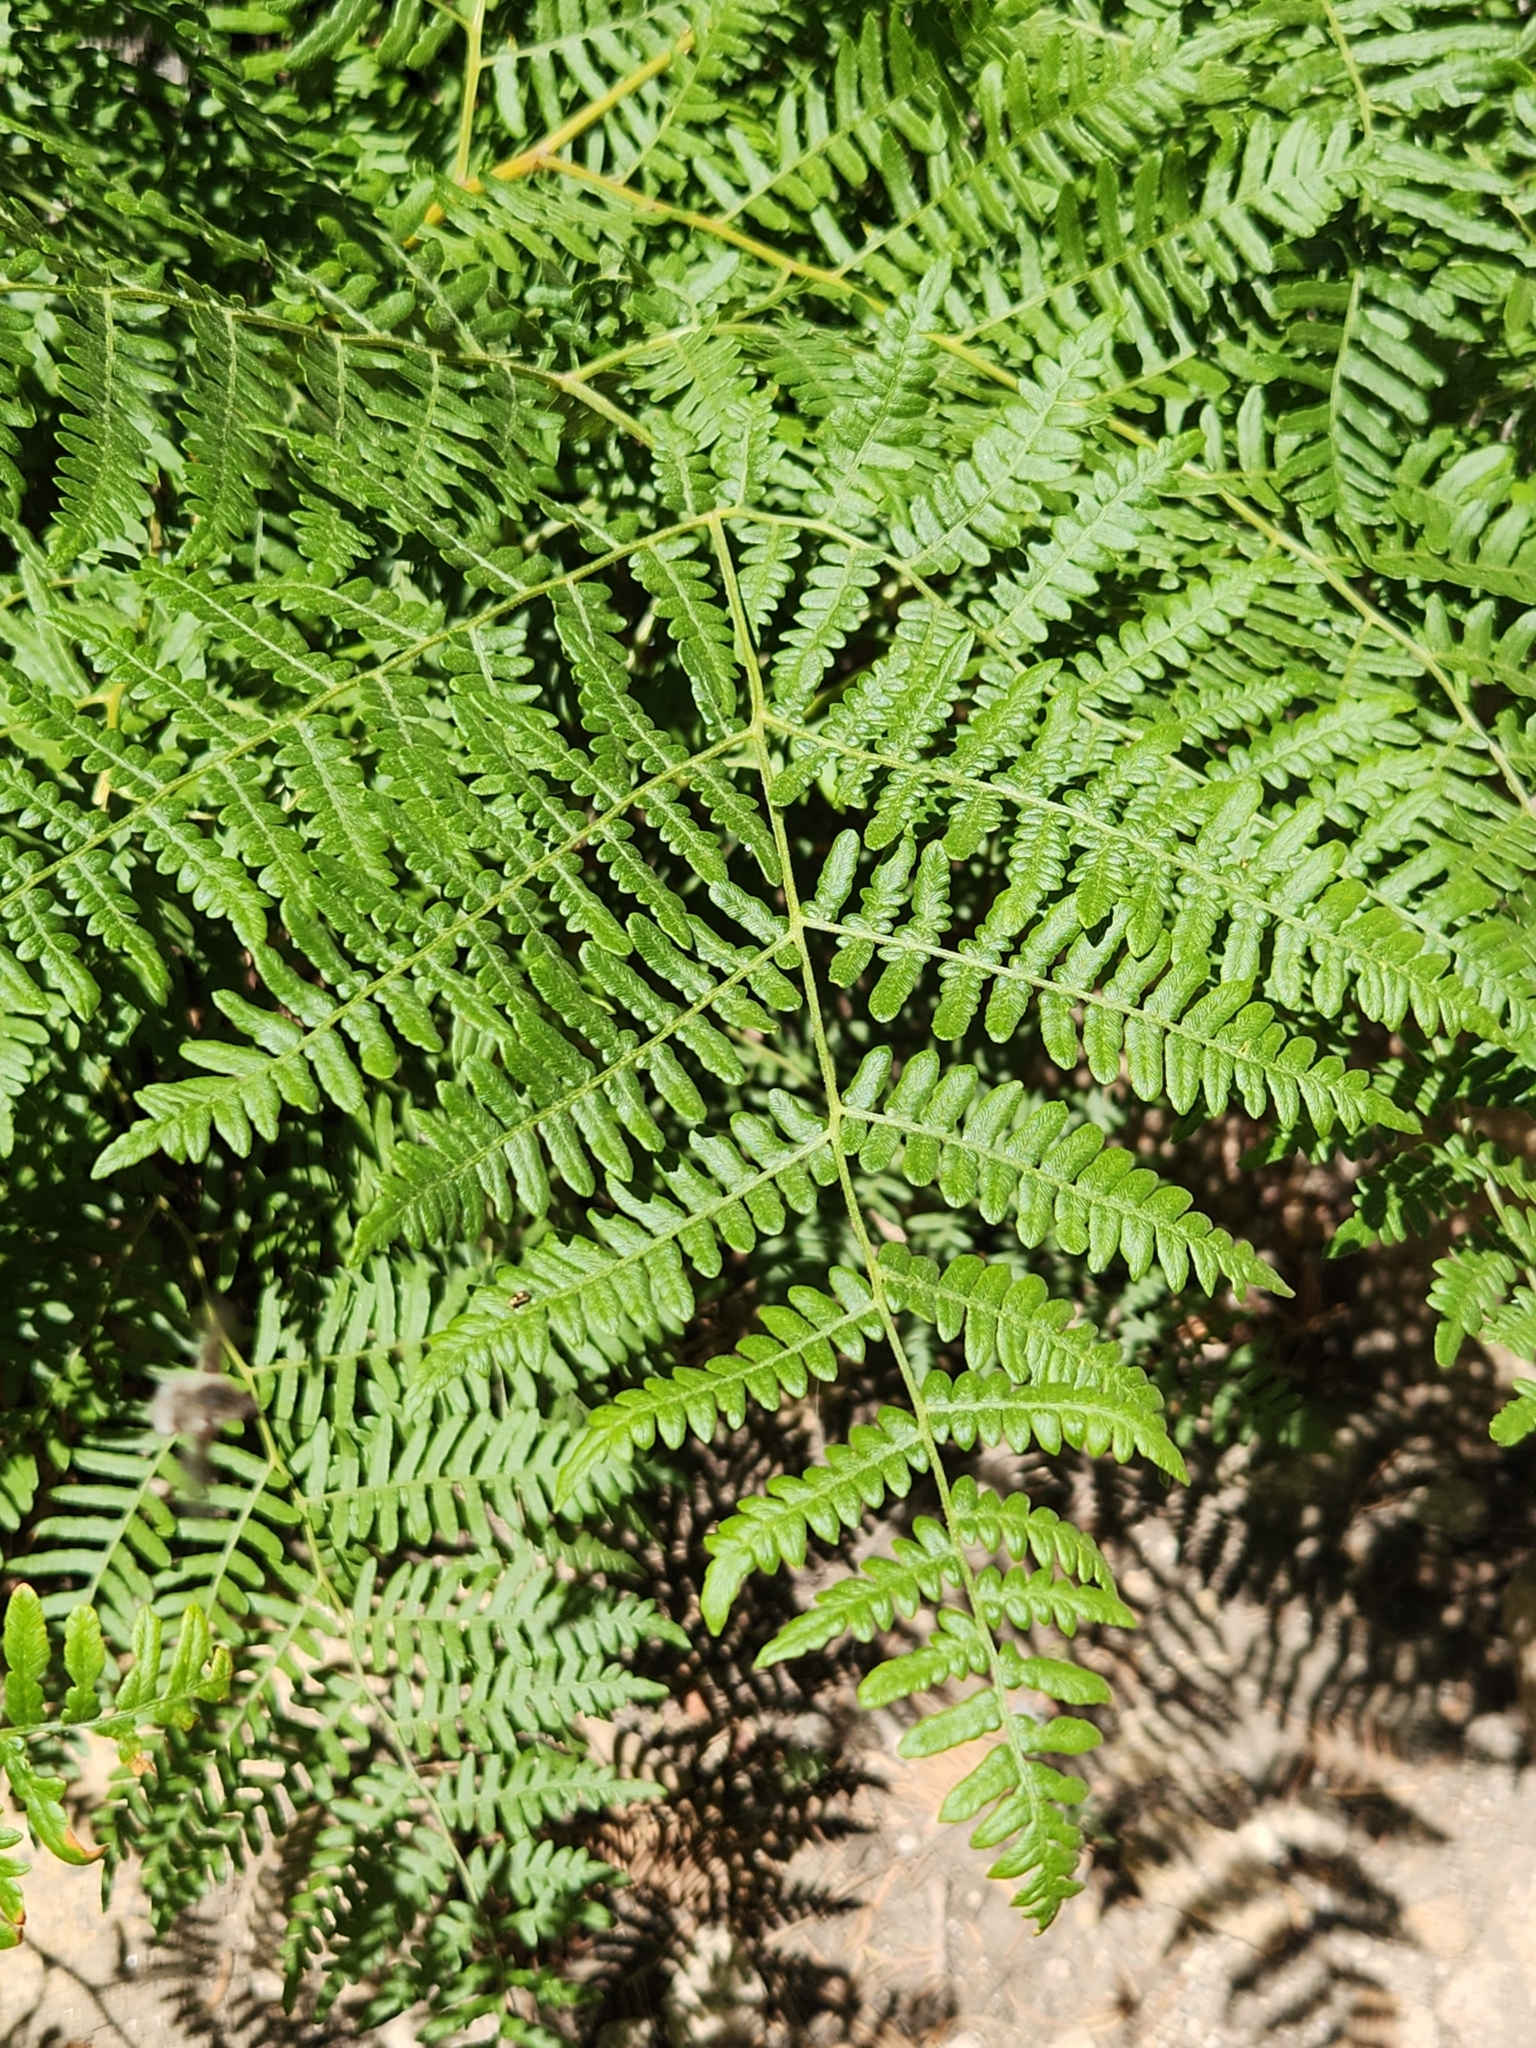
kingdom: Plantae
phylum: Tracheophyta
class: Polypodiopsida
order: Polypodiales
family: Dennstaedtiaceae
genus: Pteridium
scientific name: Pteridium aquilinum
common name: Bracken
